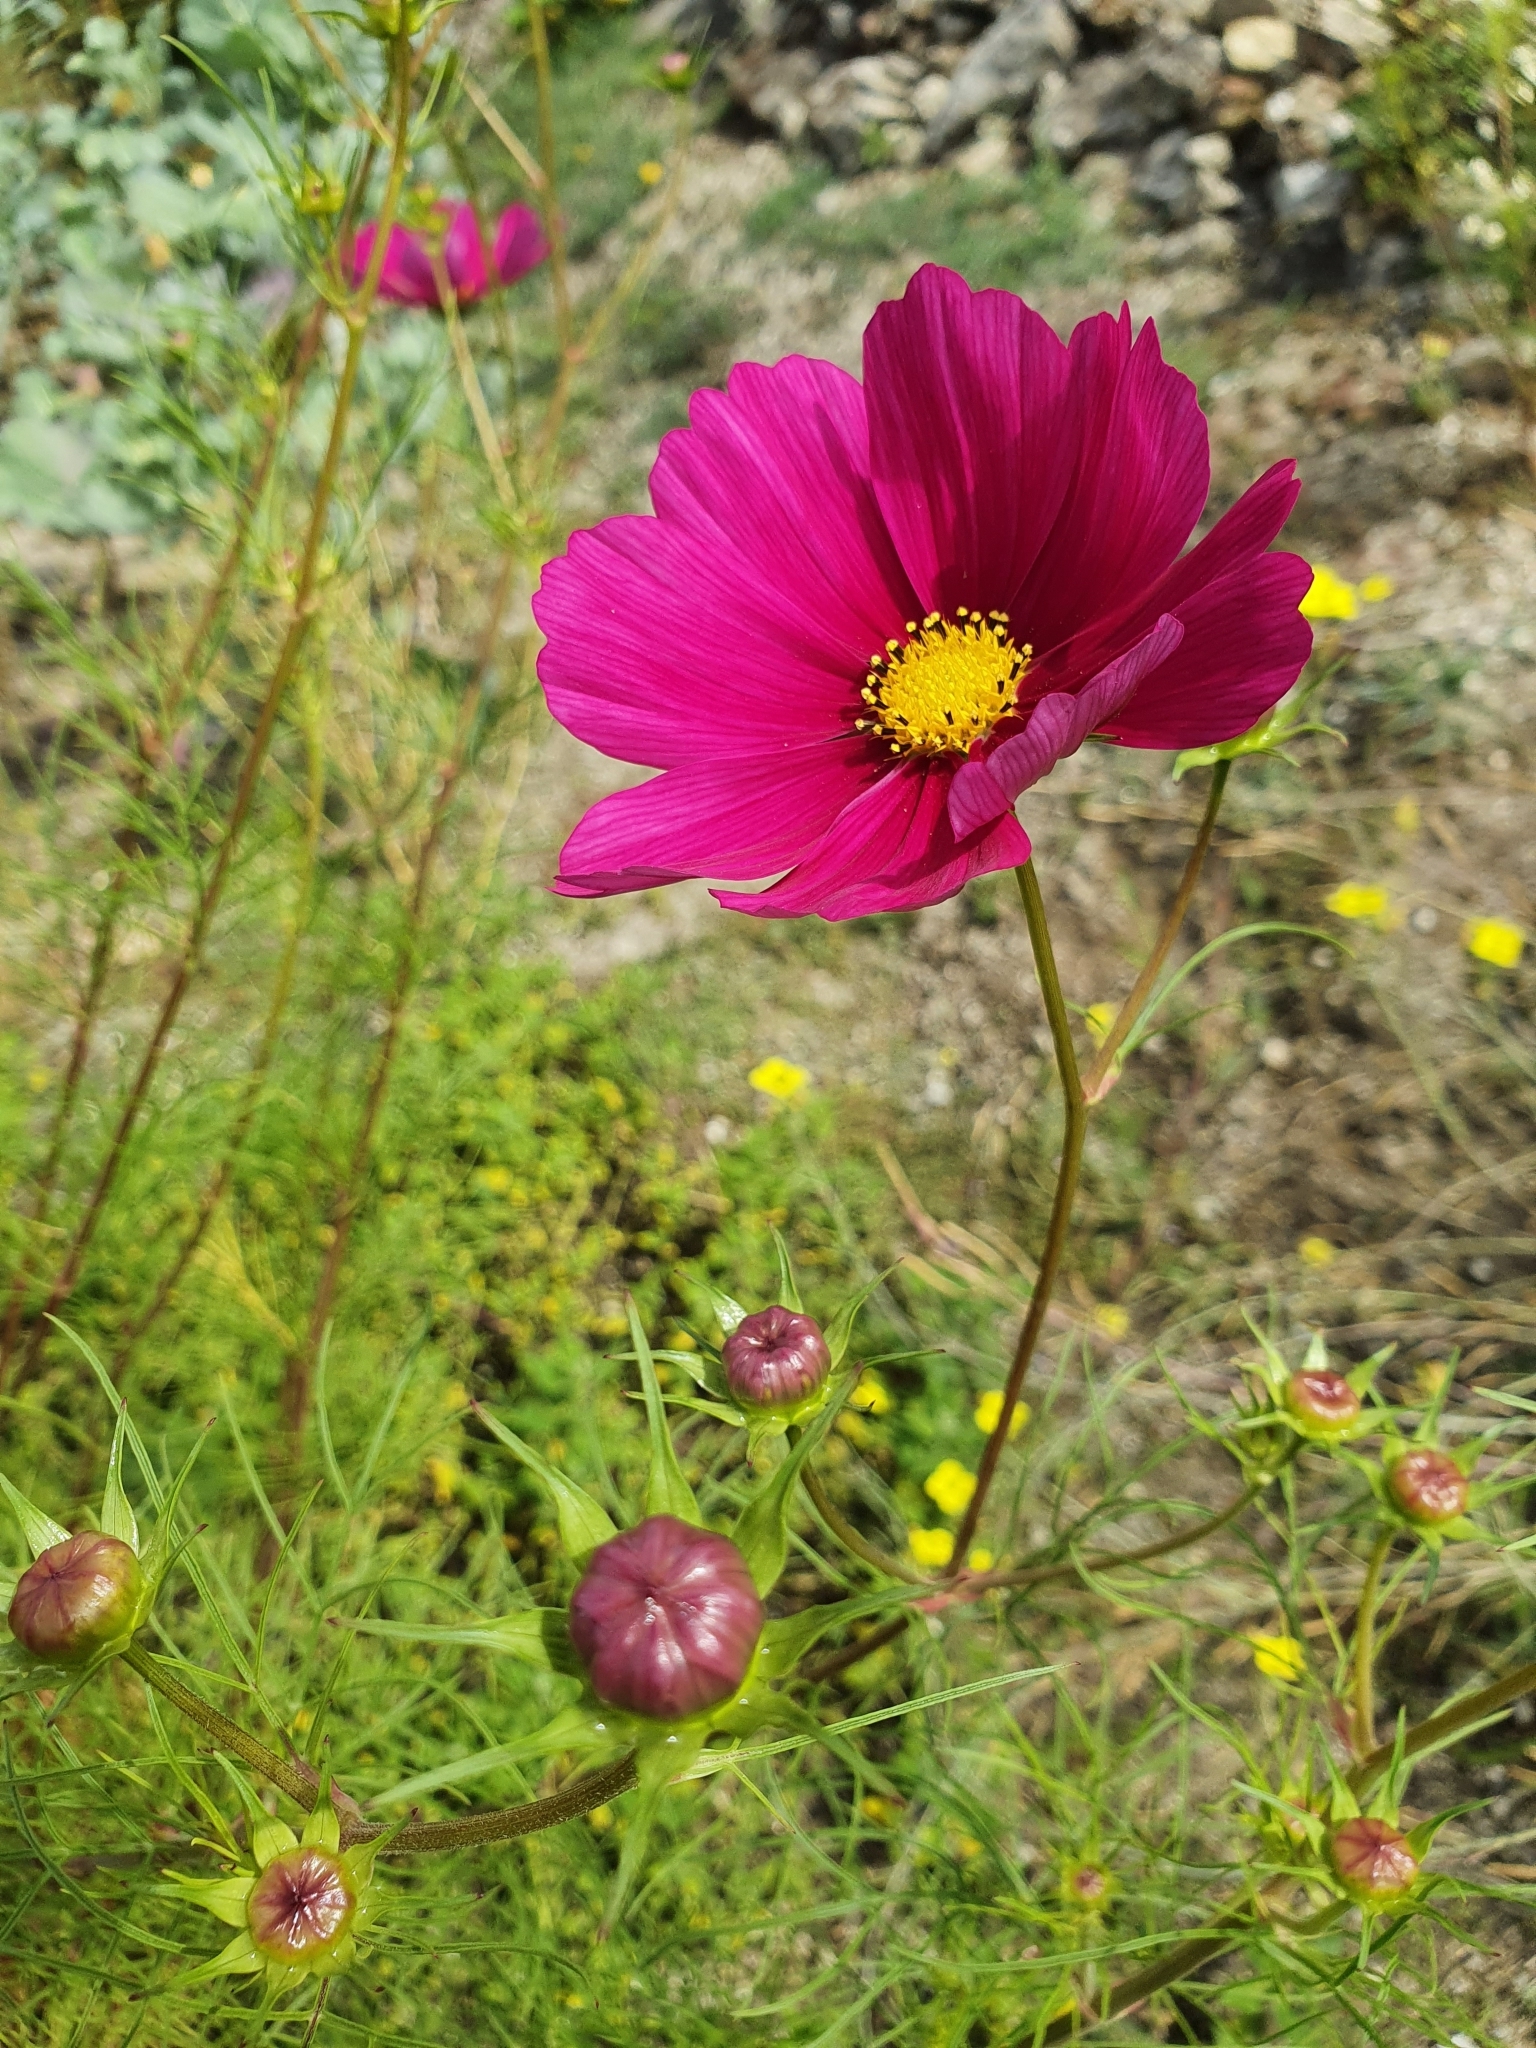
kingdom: Plantae
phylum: Tracheophyta
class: Magnoliopsida
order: Asterales
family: Asteraceae
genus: Cosmos
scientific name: Cosmos bipinnatus
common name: Garden cosmos
